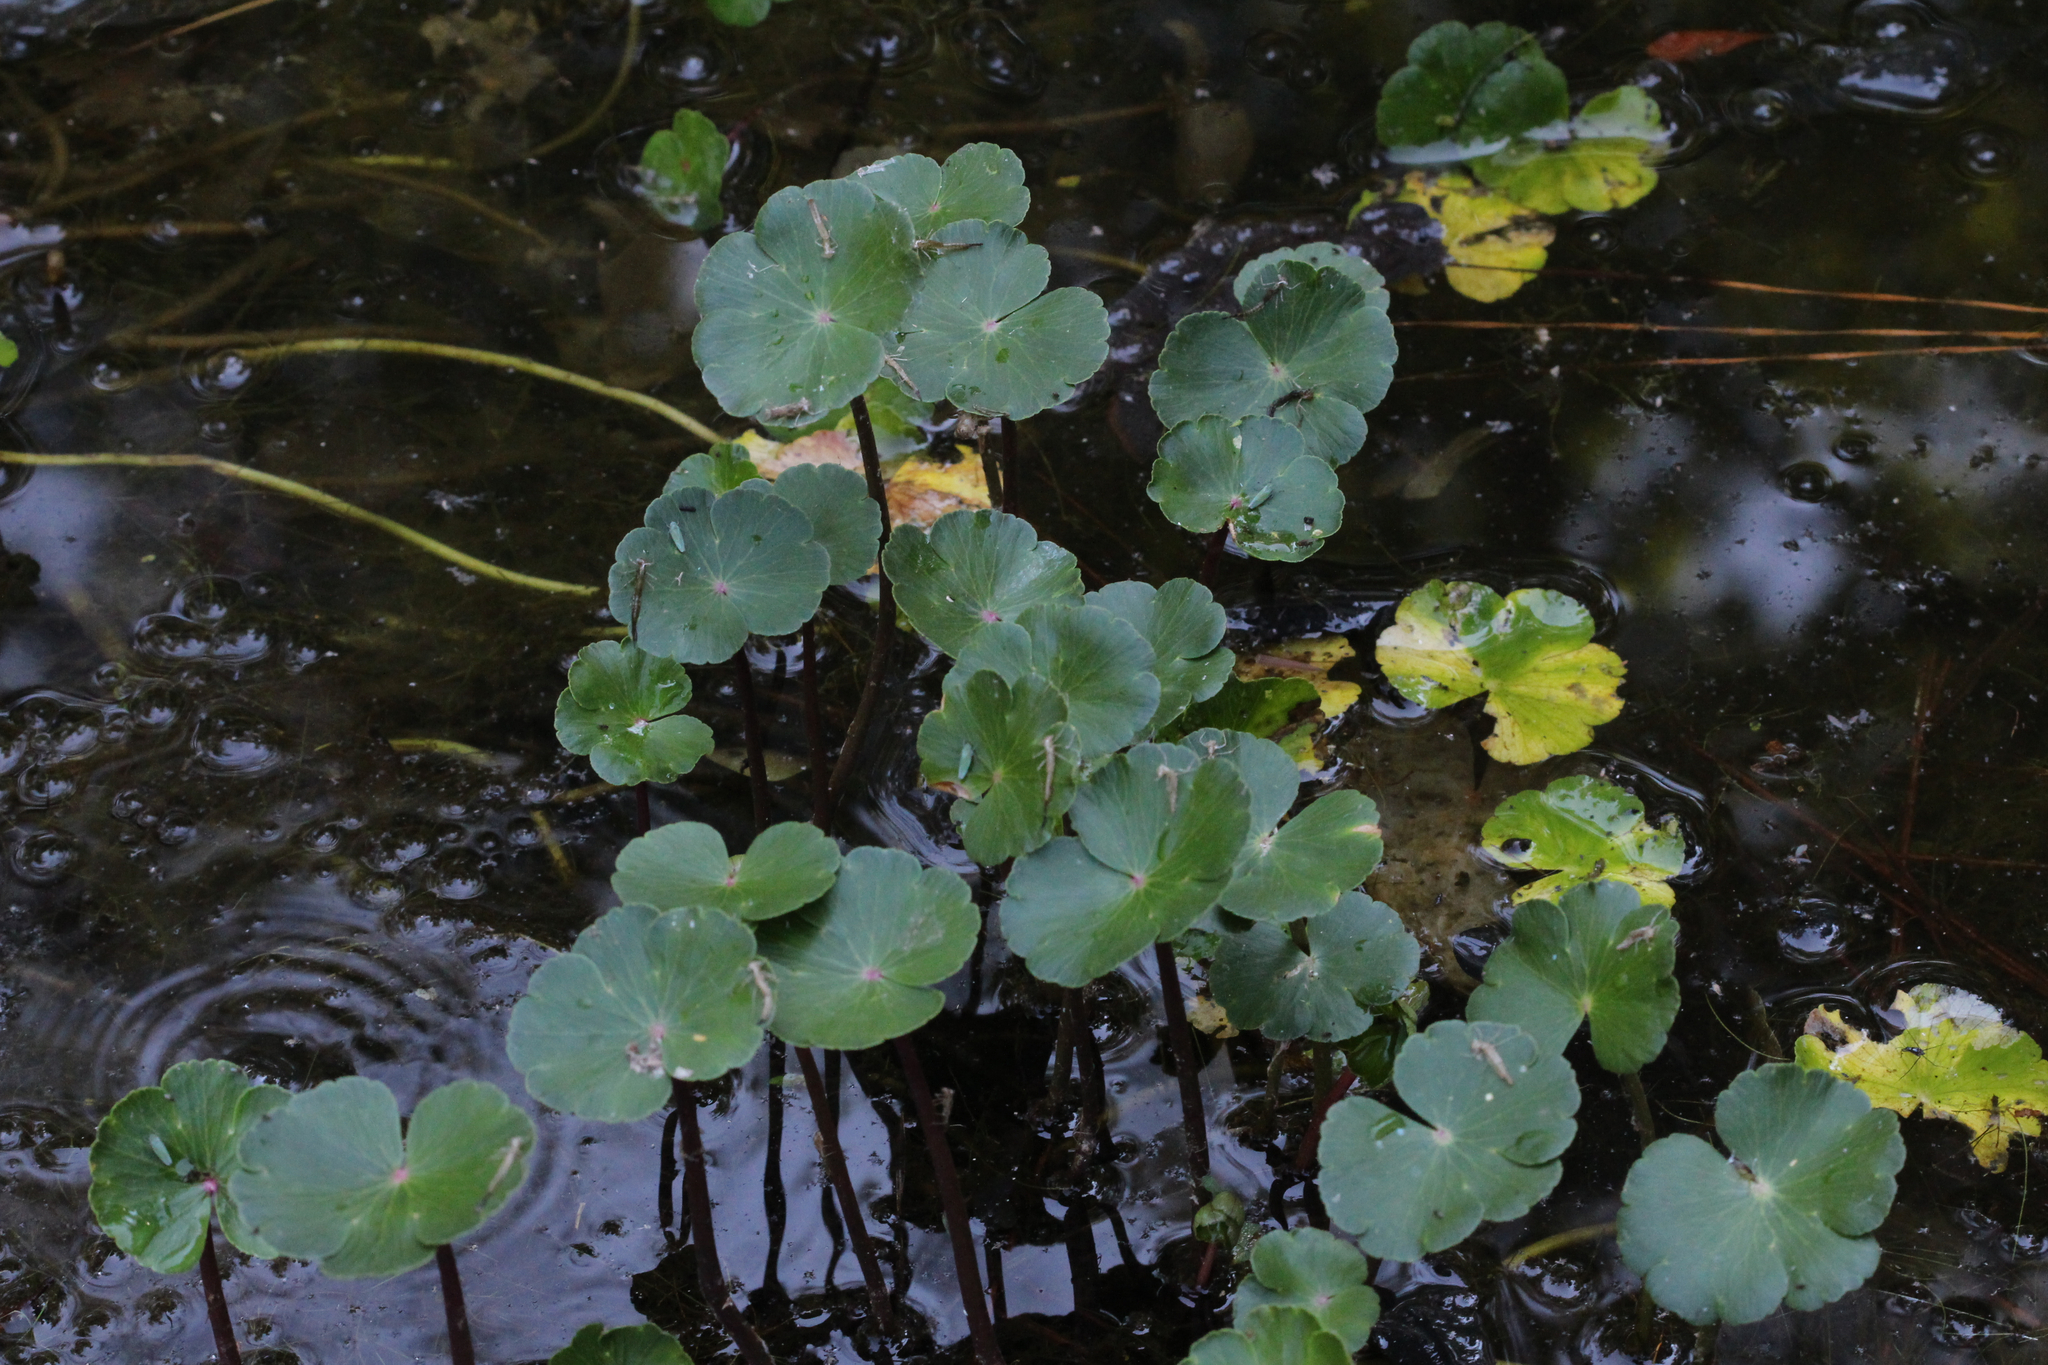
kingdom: Plantae
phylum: Tracheophyta
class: Magnoliopsida
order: Apiales
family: Araliaceae
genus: Hydrocotyle
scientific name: Hydrocotyle ranunculoides
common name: Floating pennywort
